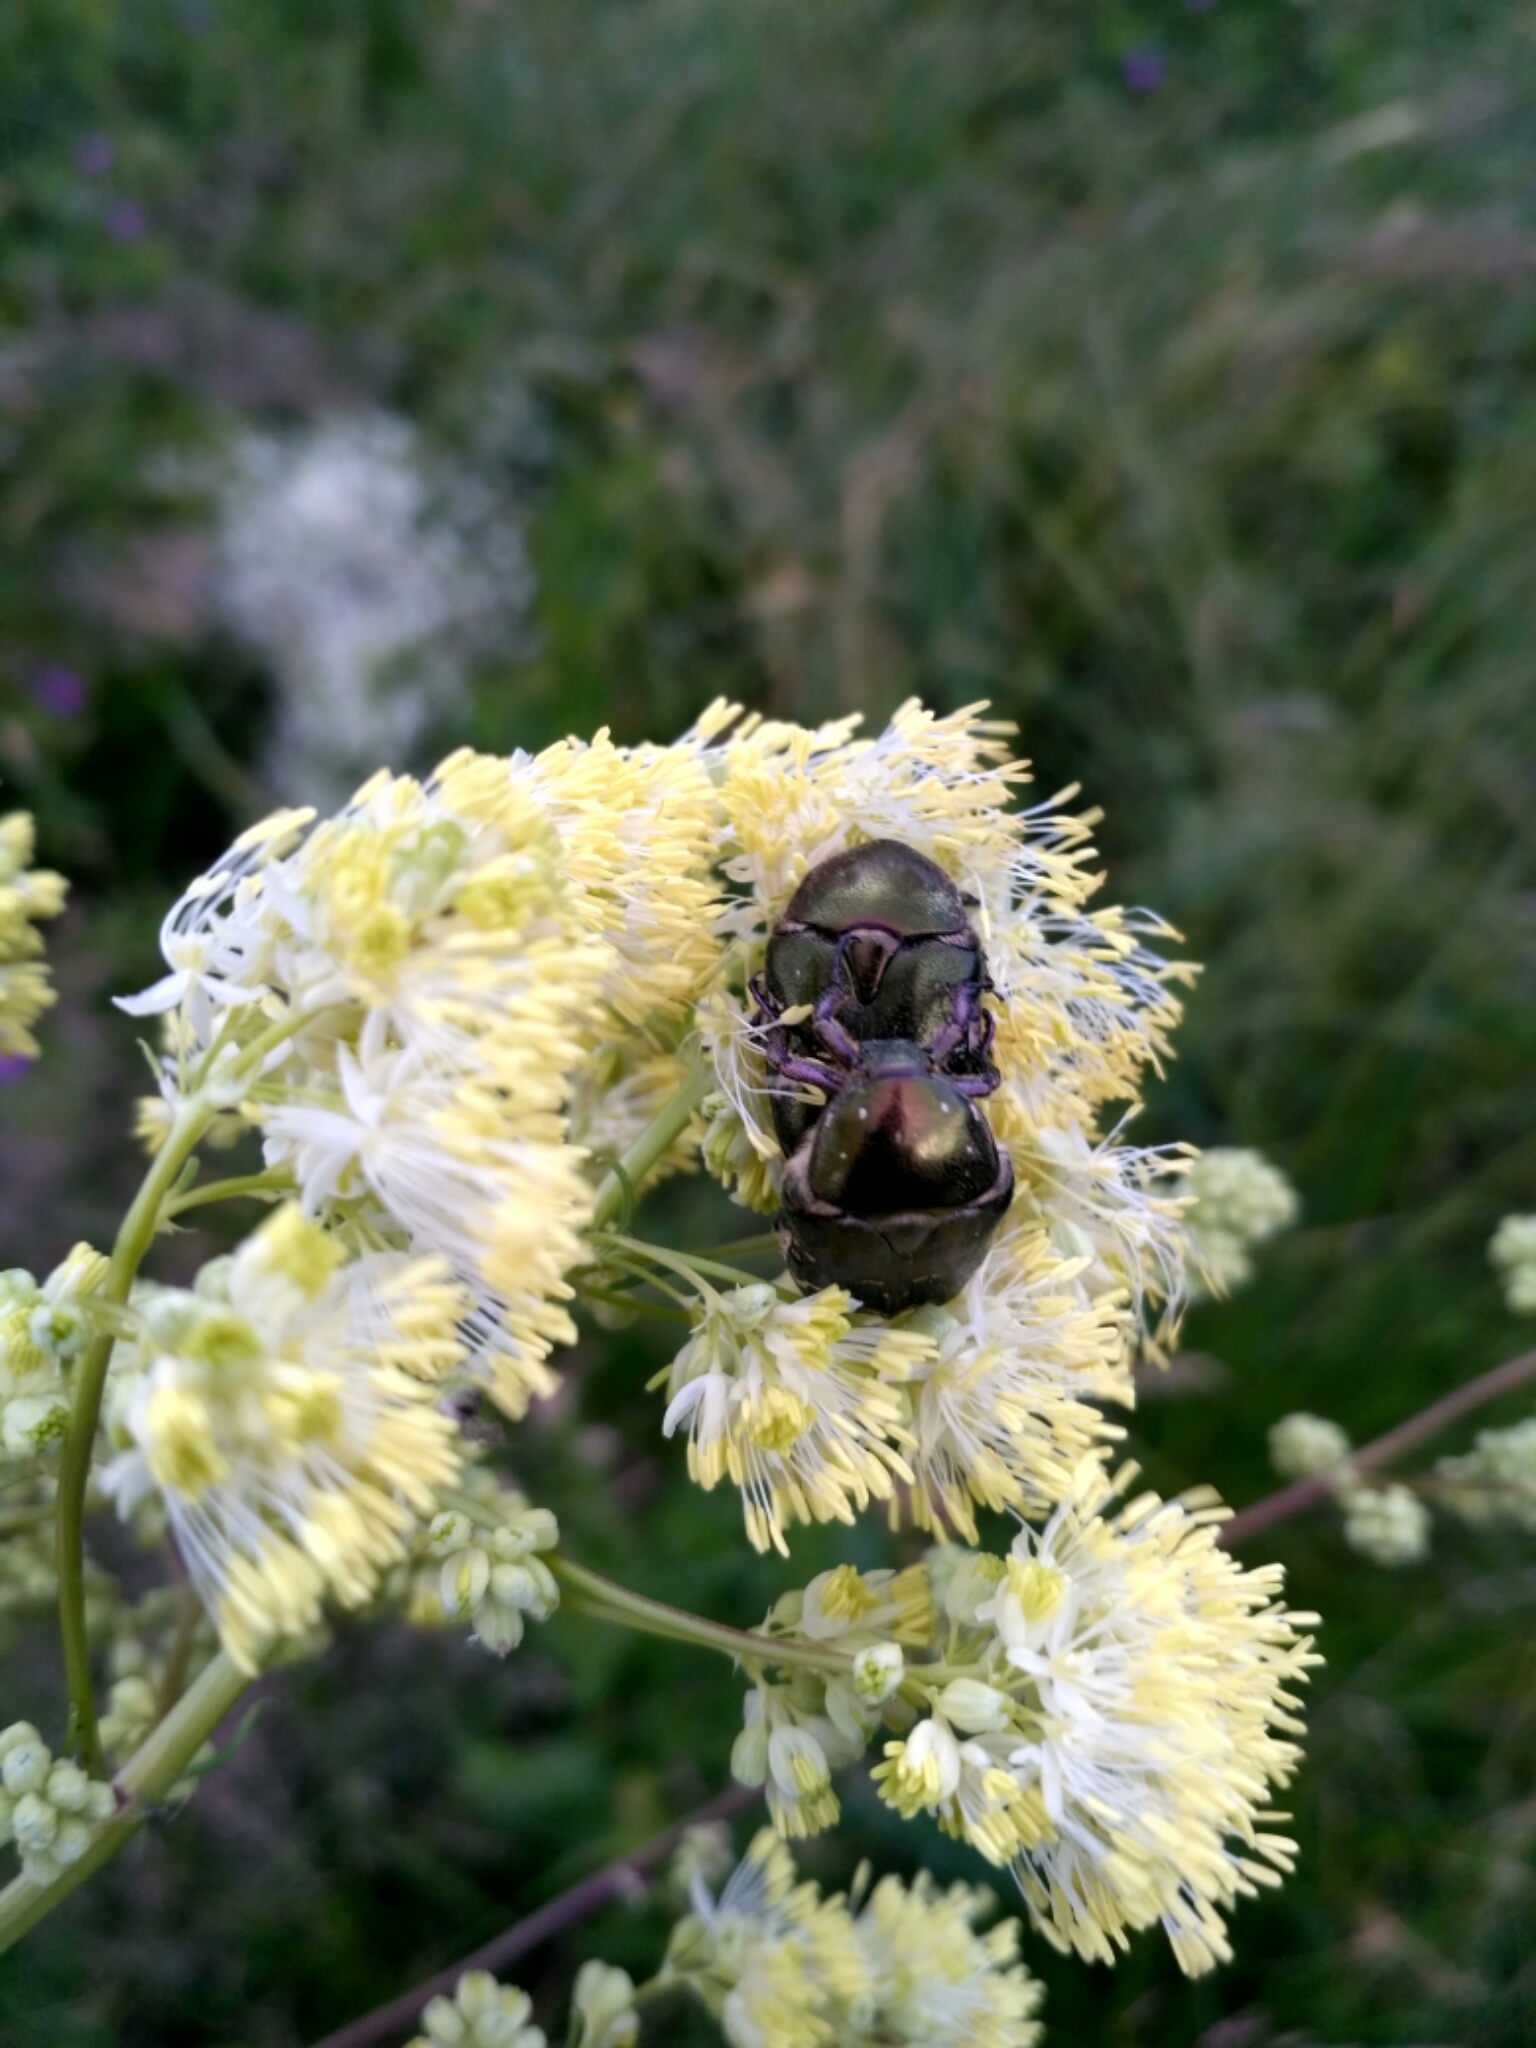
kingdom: Animalia
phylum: Arthropoda
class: Insecta
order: Coleoptera
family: Scarabaeidae
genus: Protaetia
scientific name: Protaetia cuprea
